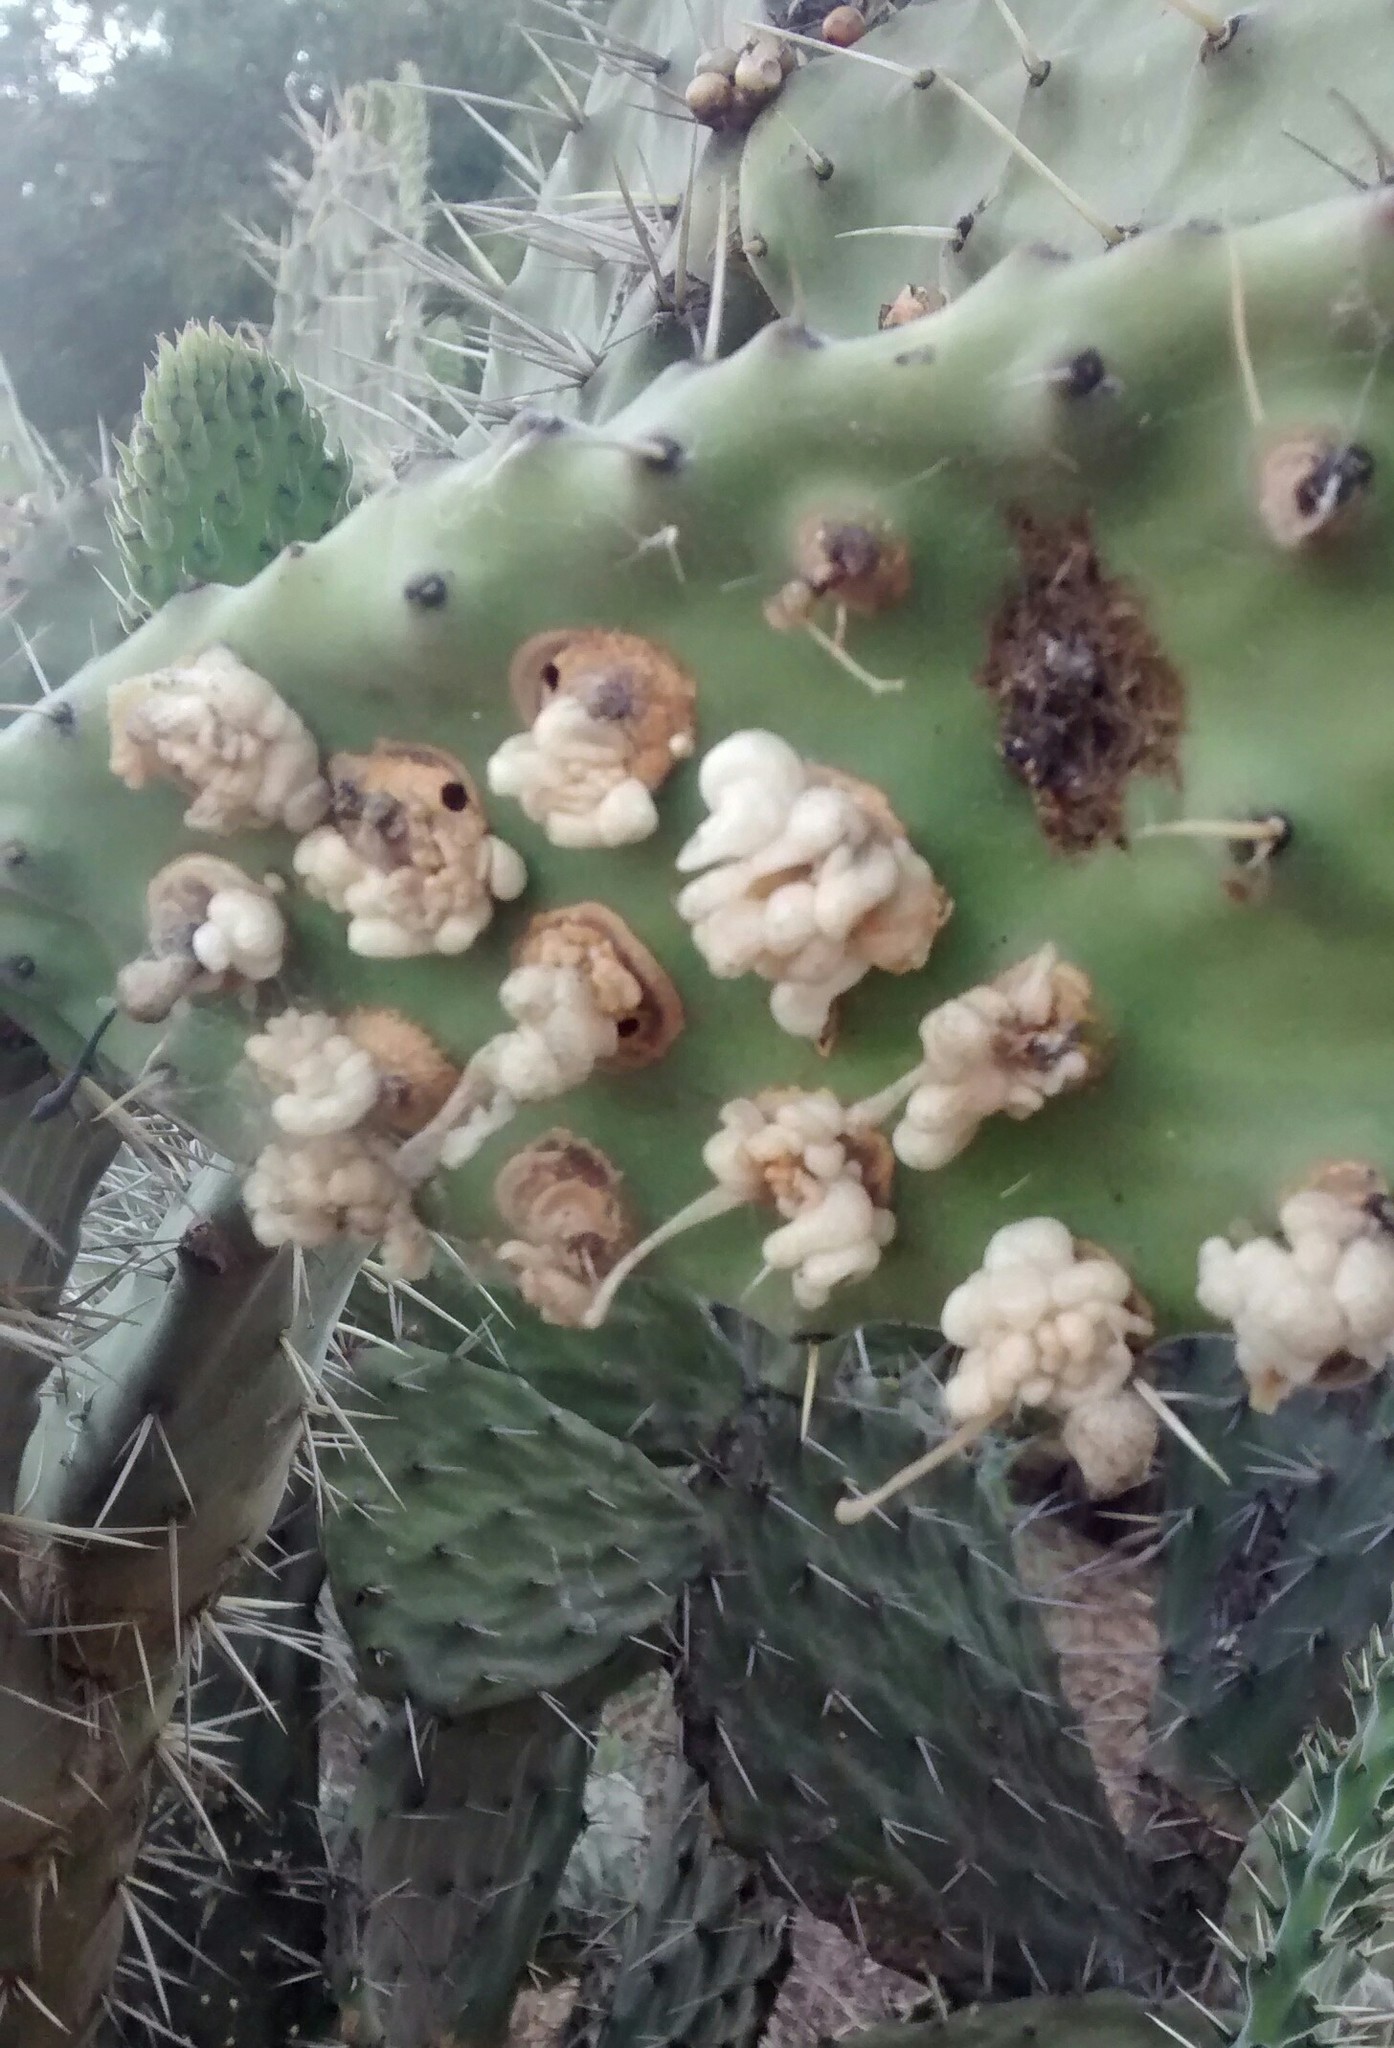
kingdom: Animalia
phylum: Arthropoda
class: Insecta
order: Coleoptera
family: Dryophthoridae
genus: Cactophagus
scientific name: Cactophagus spinolae
